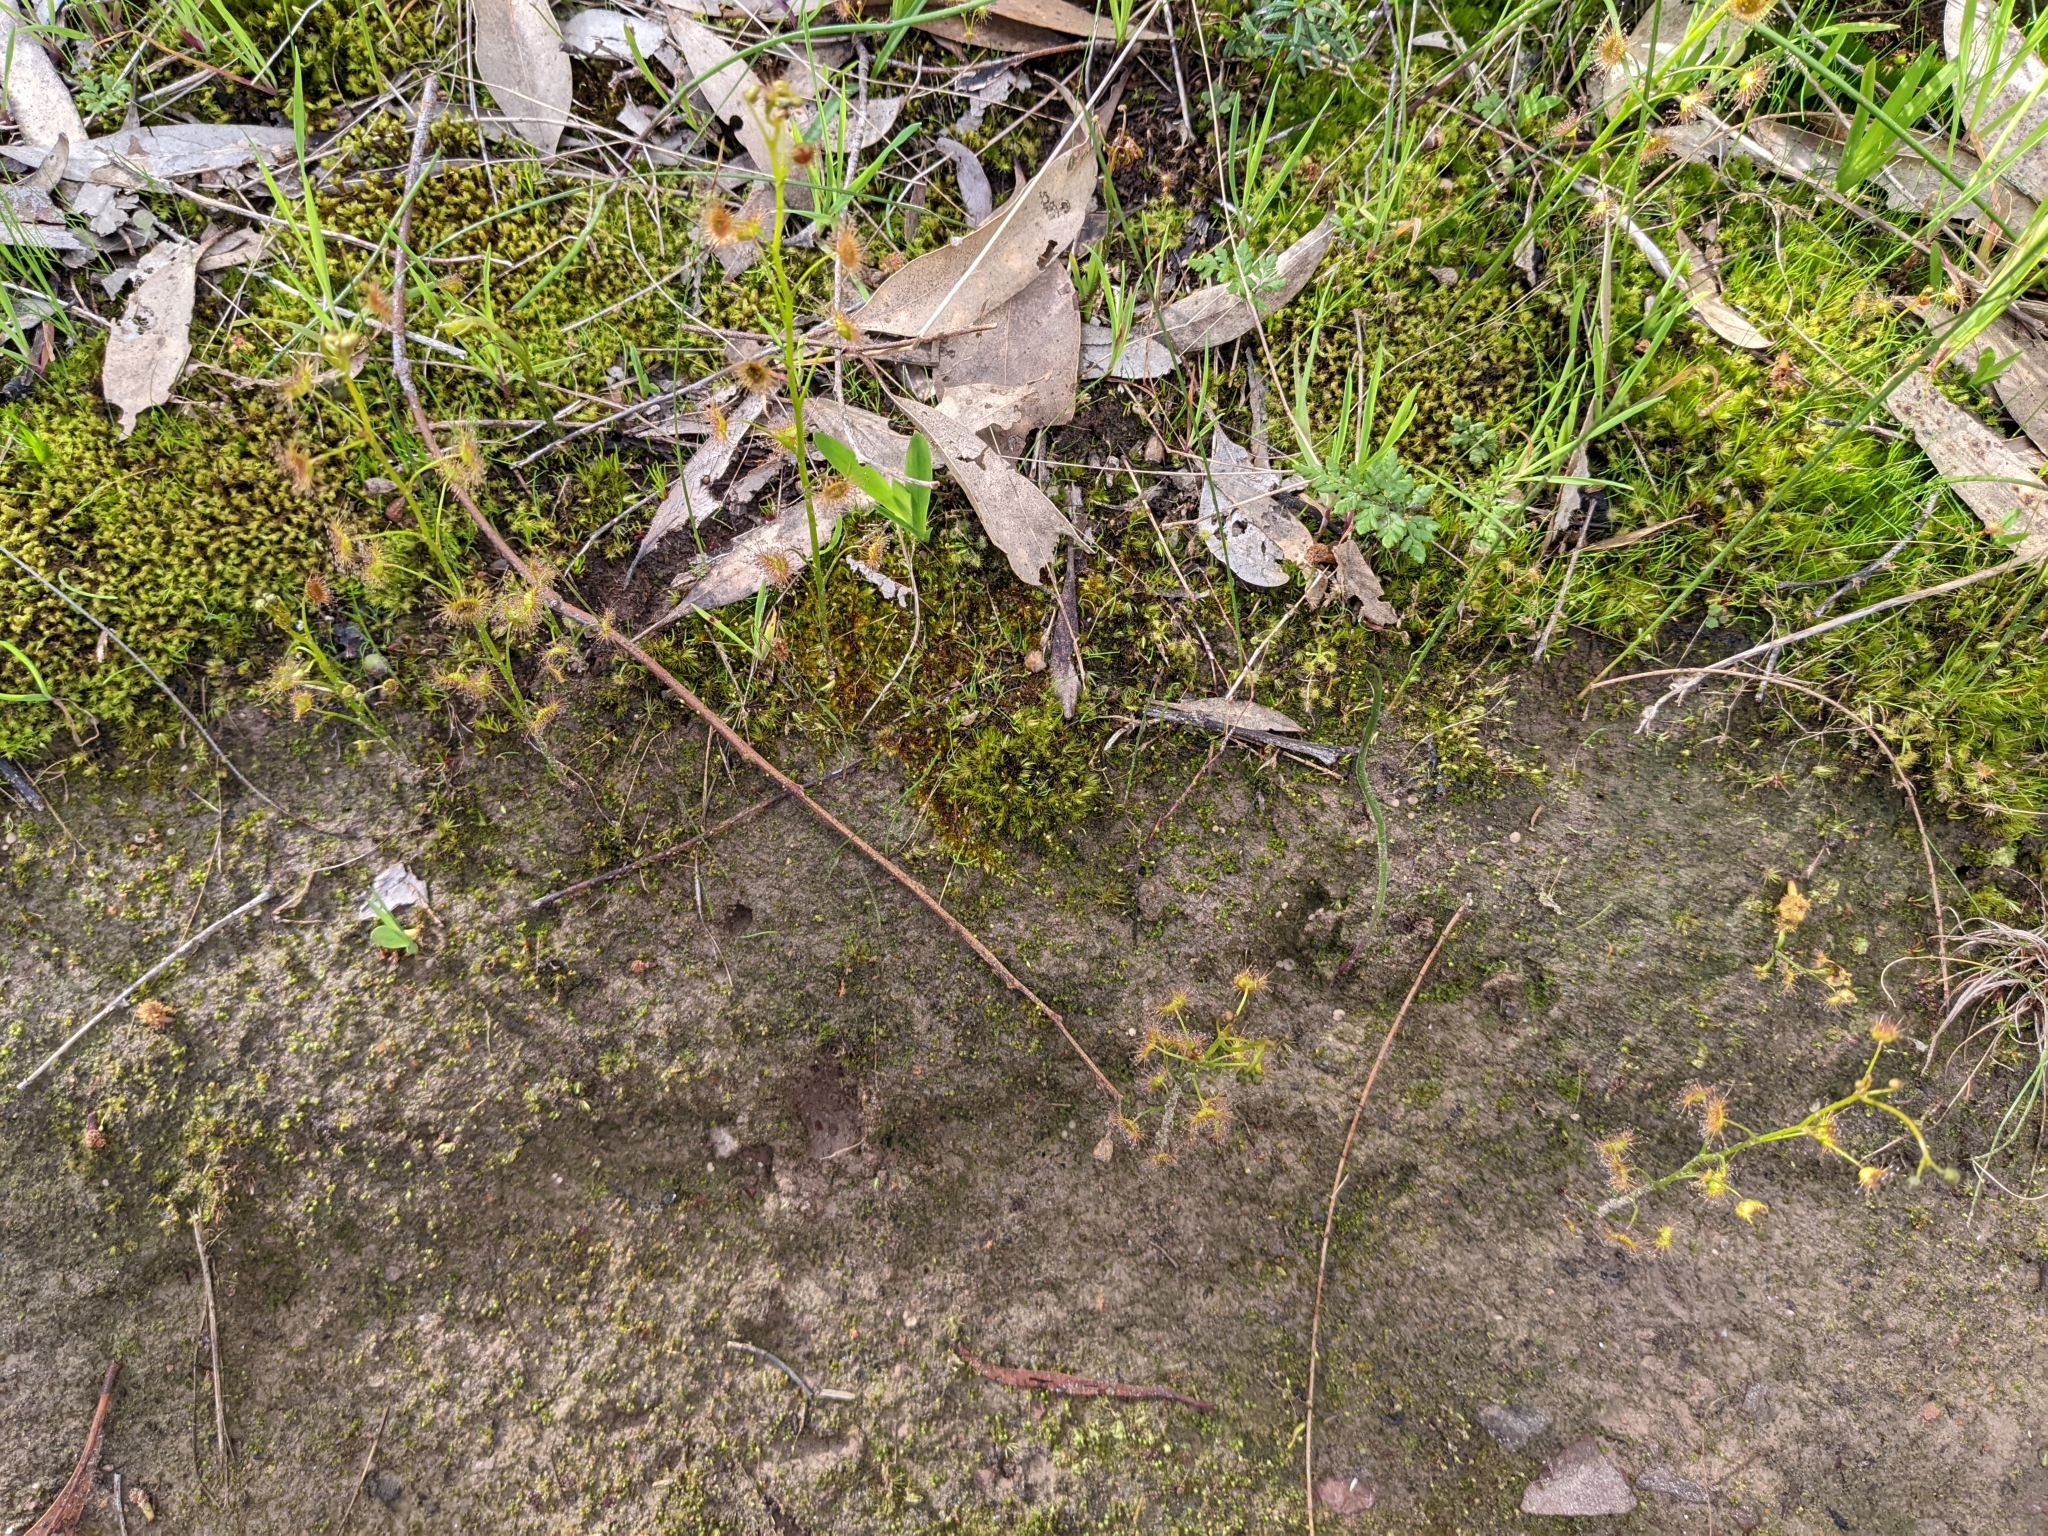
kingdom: Plantae
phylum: Tracheophyta
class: Magnoliopsida
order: Caryophyllales
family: Droseraceae
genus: Drosera
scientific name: Drosera peltata
